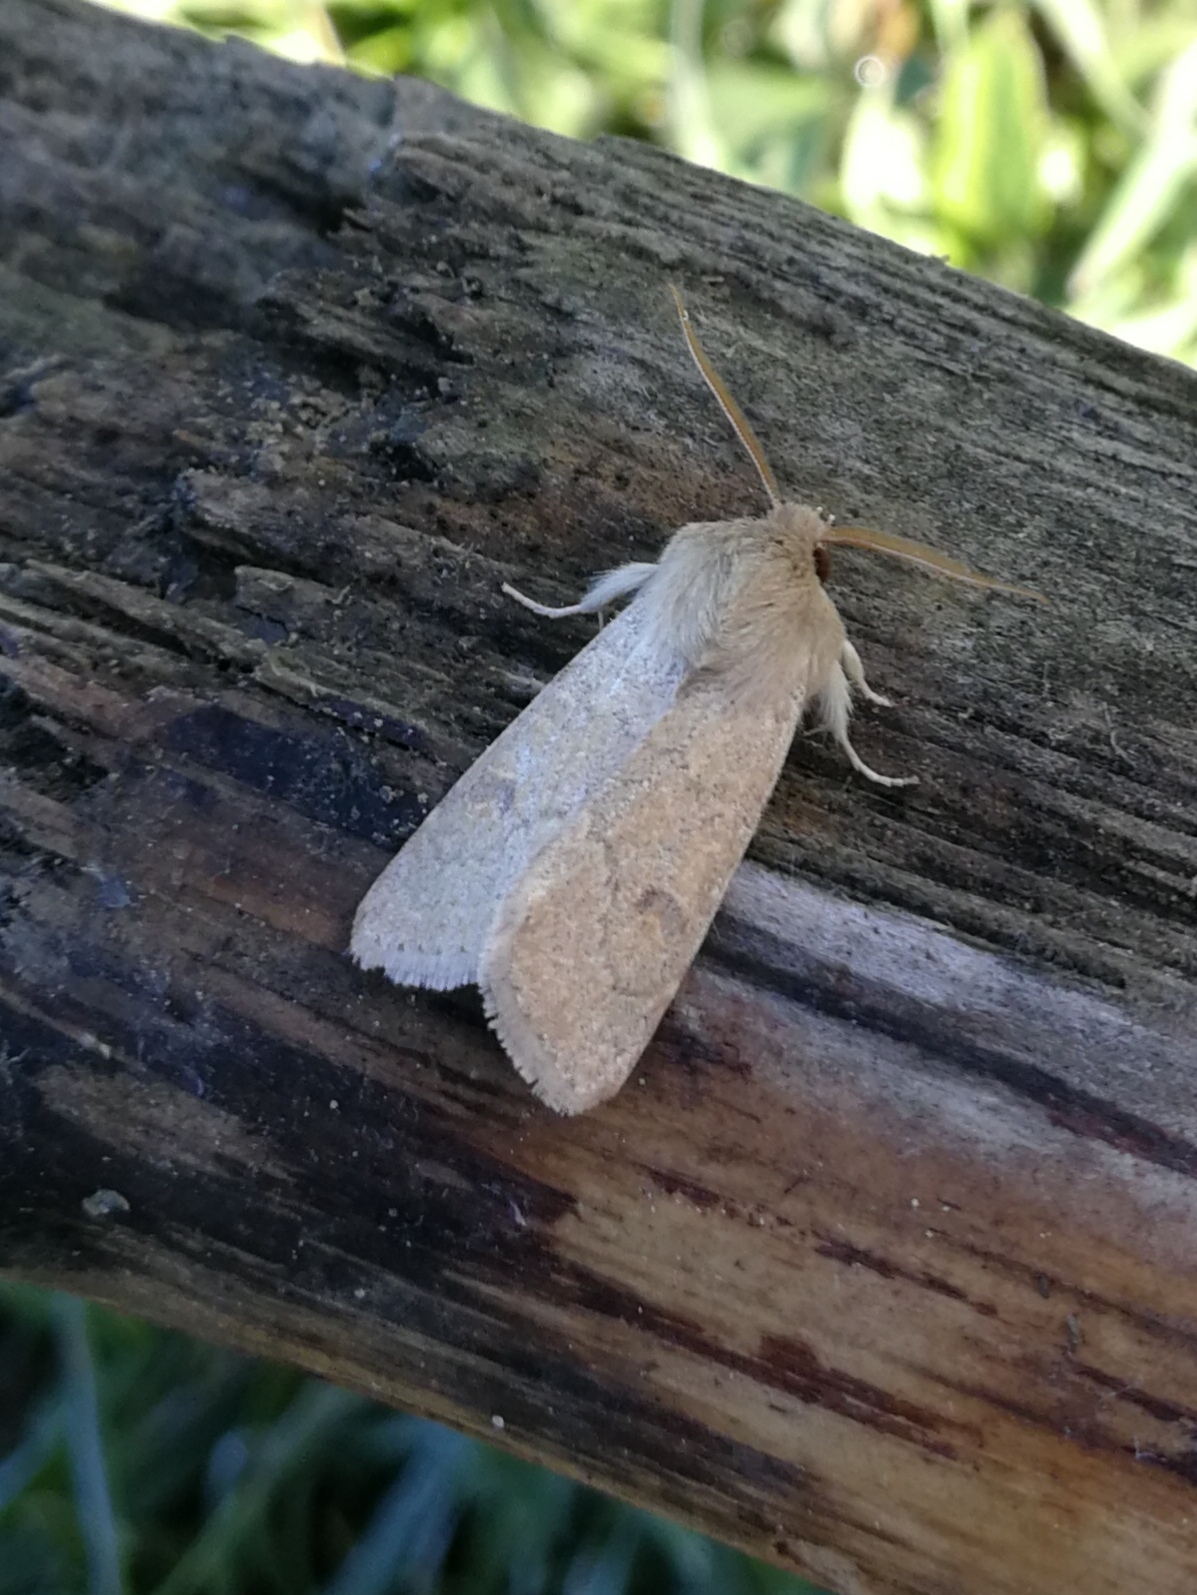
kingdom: Animalia
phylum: Arthropoda
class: Insecta
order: Lepidoptera
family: Noctuidae
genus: Orthosia
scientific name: Orthosia miniosa
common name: Blossom underwing
